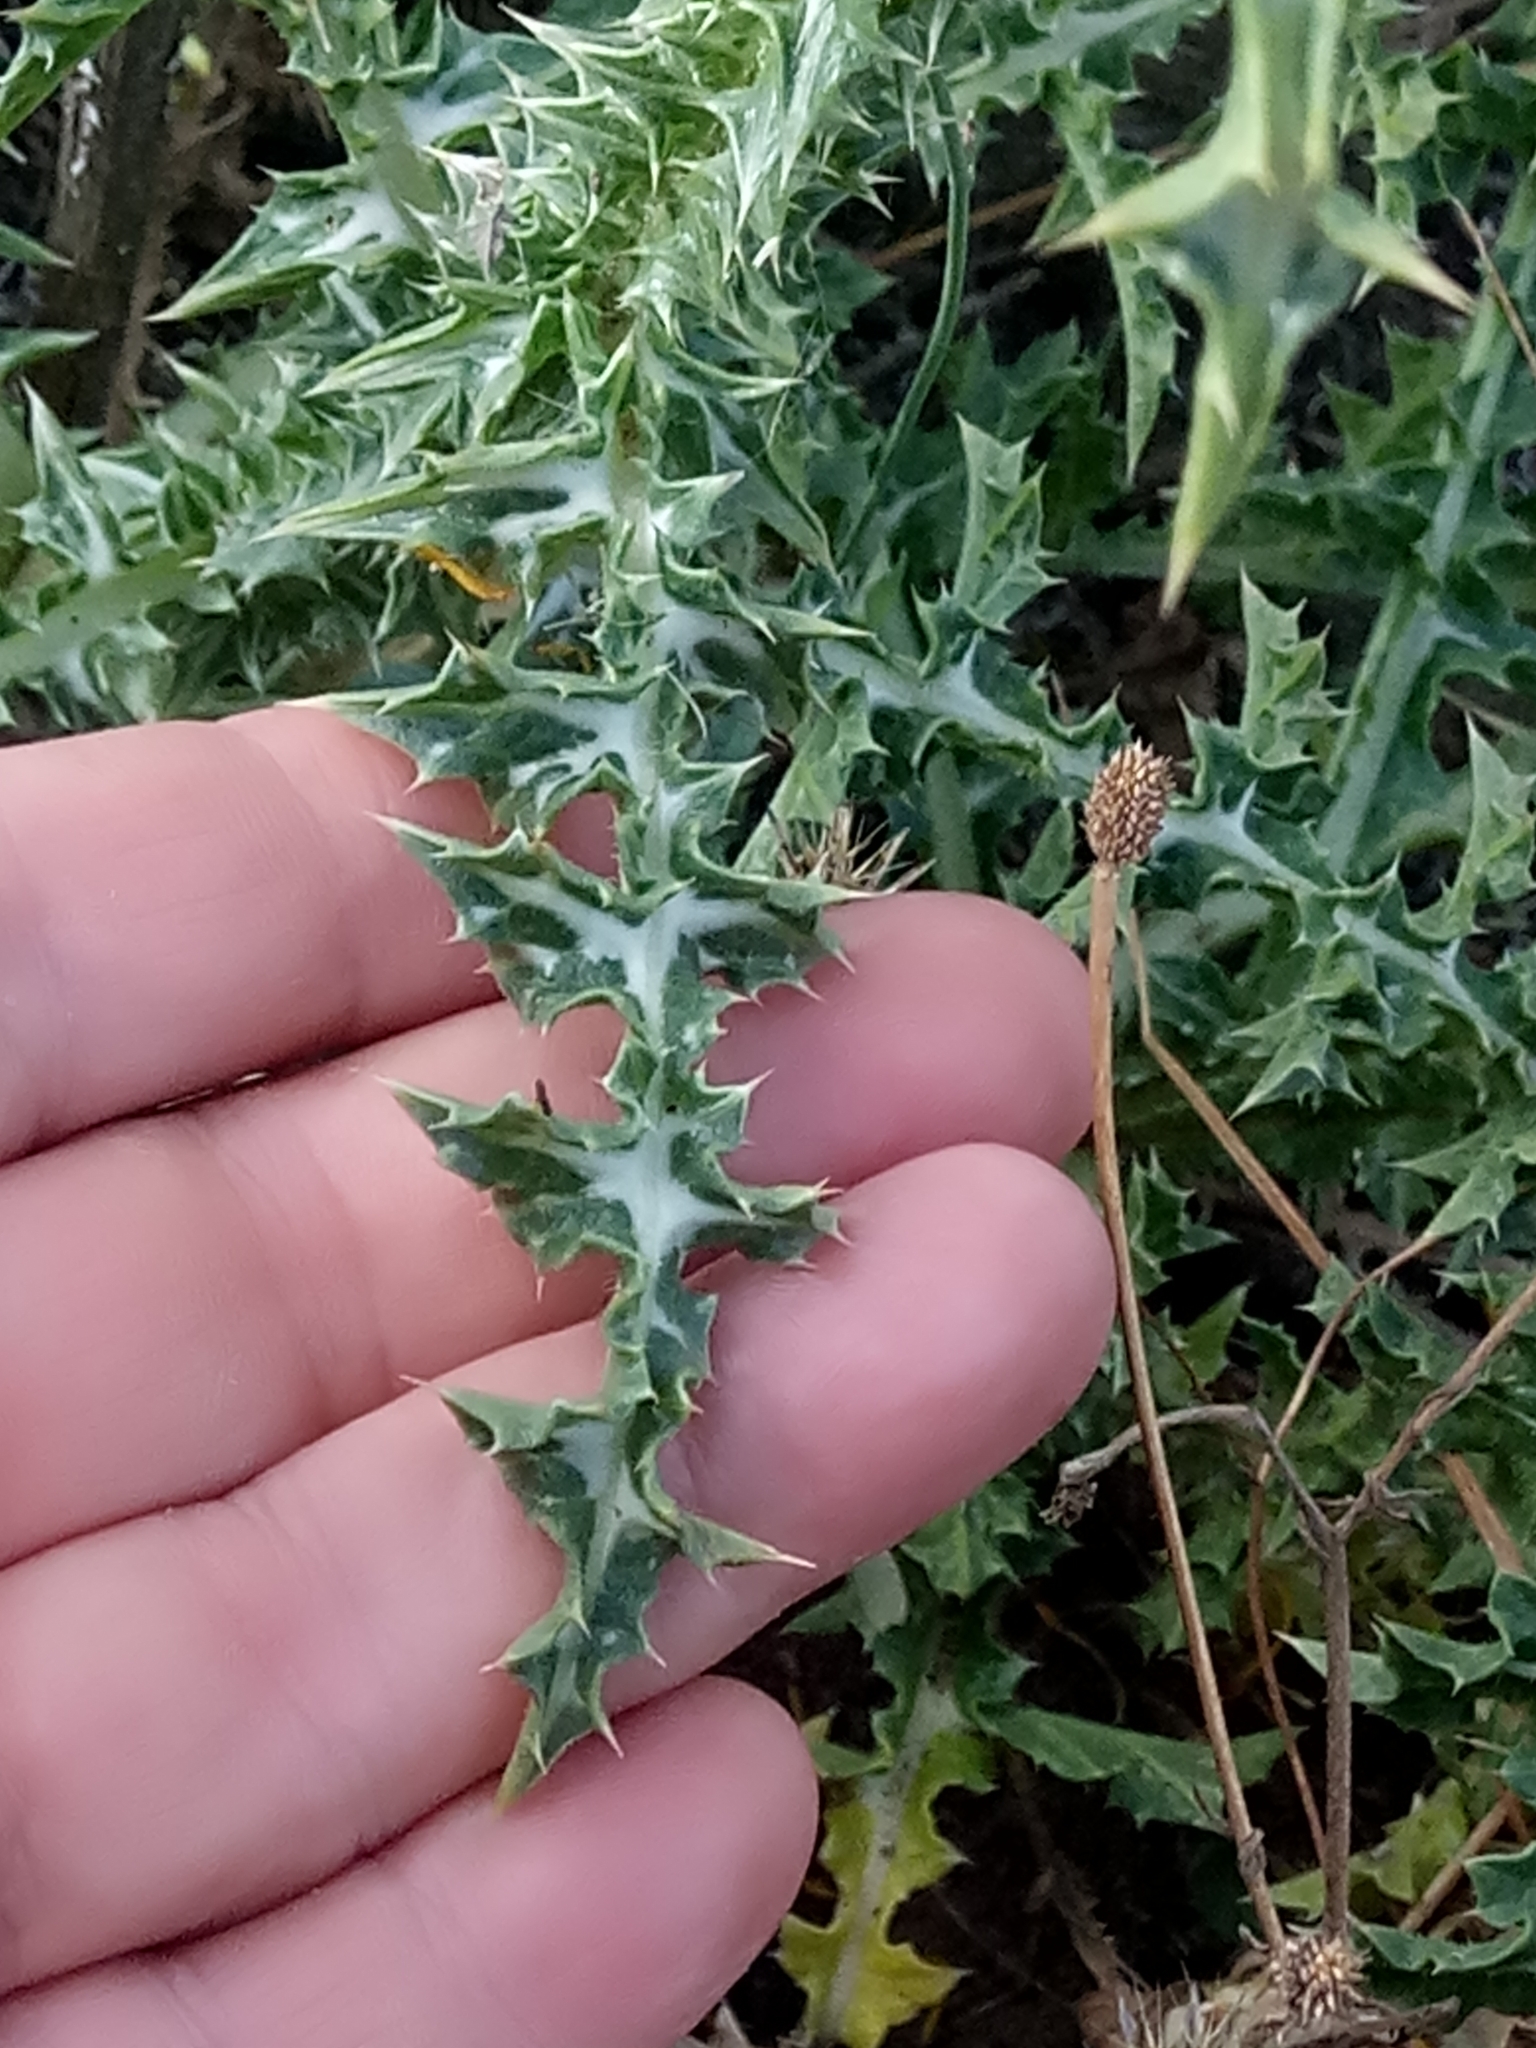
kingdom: Plantae
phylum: Tracheophyta
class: Magnoliopsida
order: Asterales
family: Asteraceae
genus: Scolymus
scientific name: Scolymus grandiflorus
